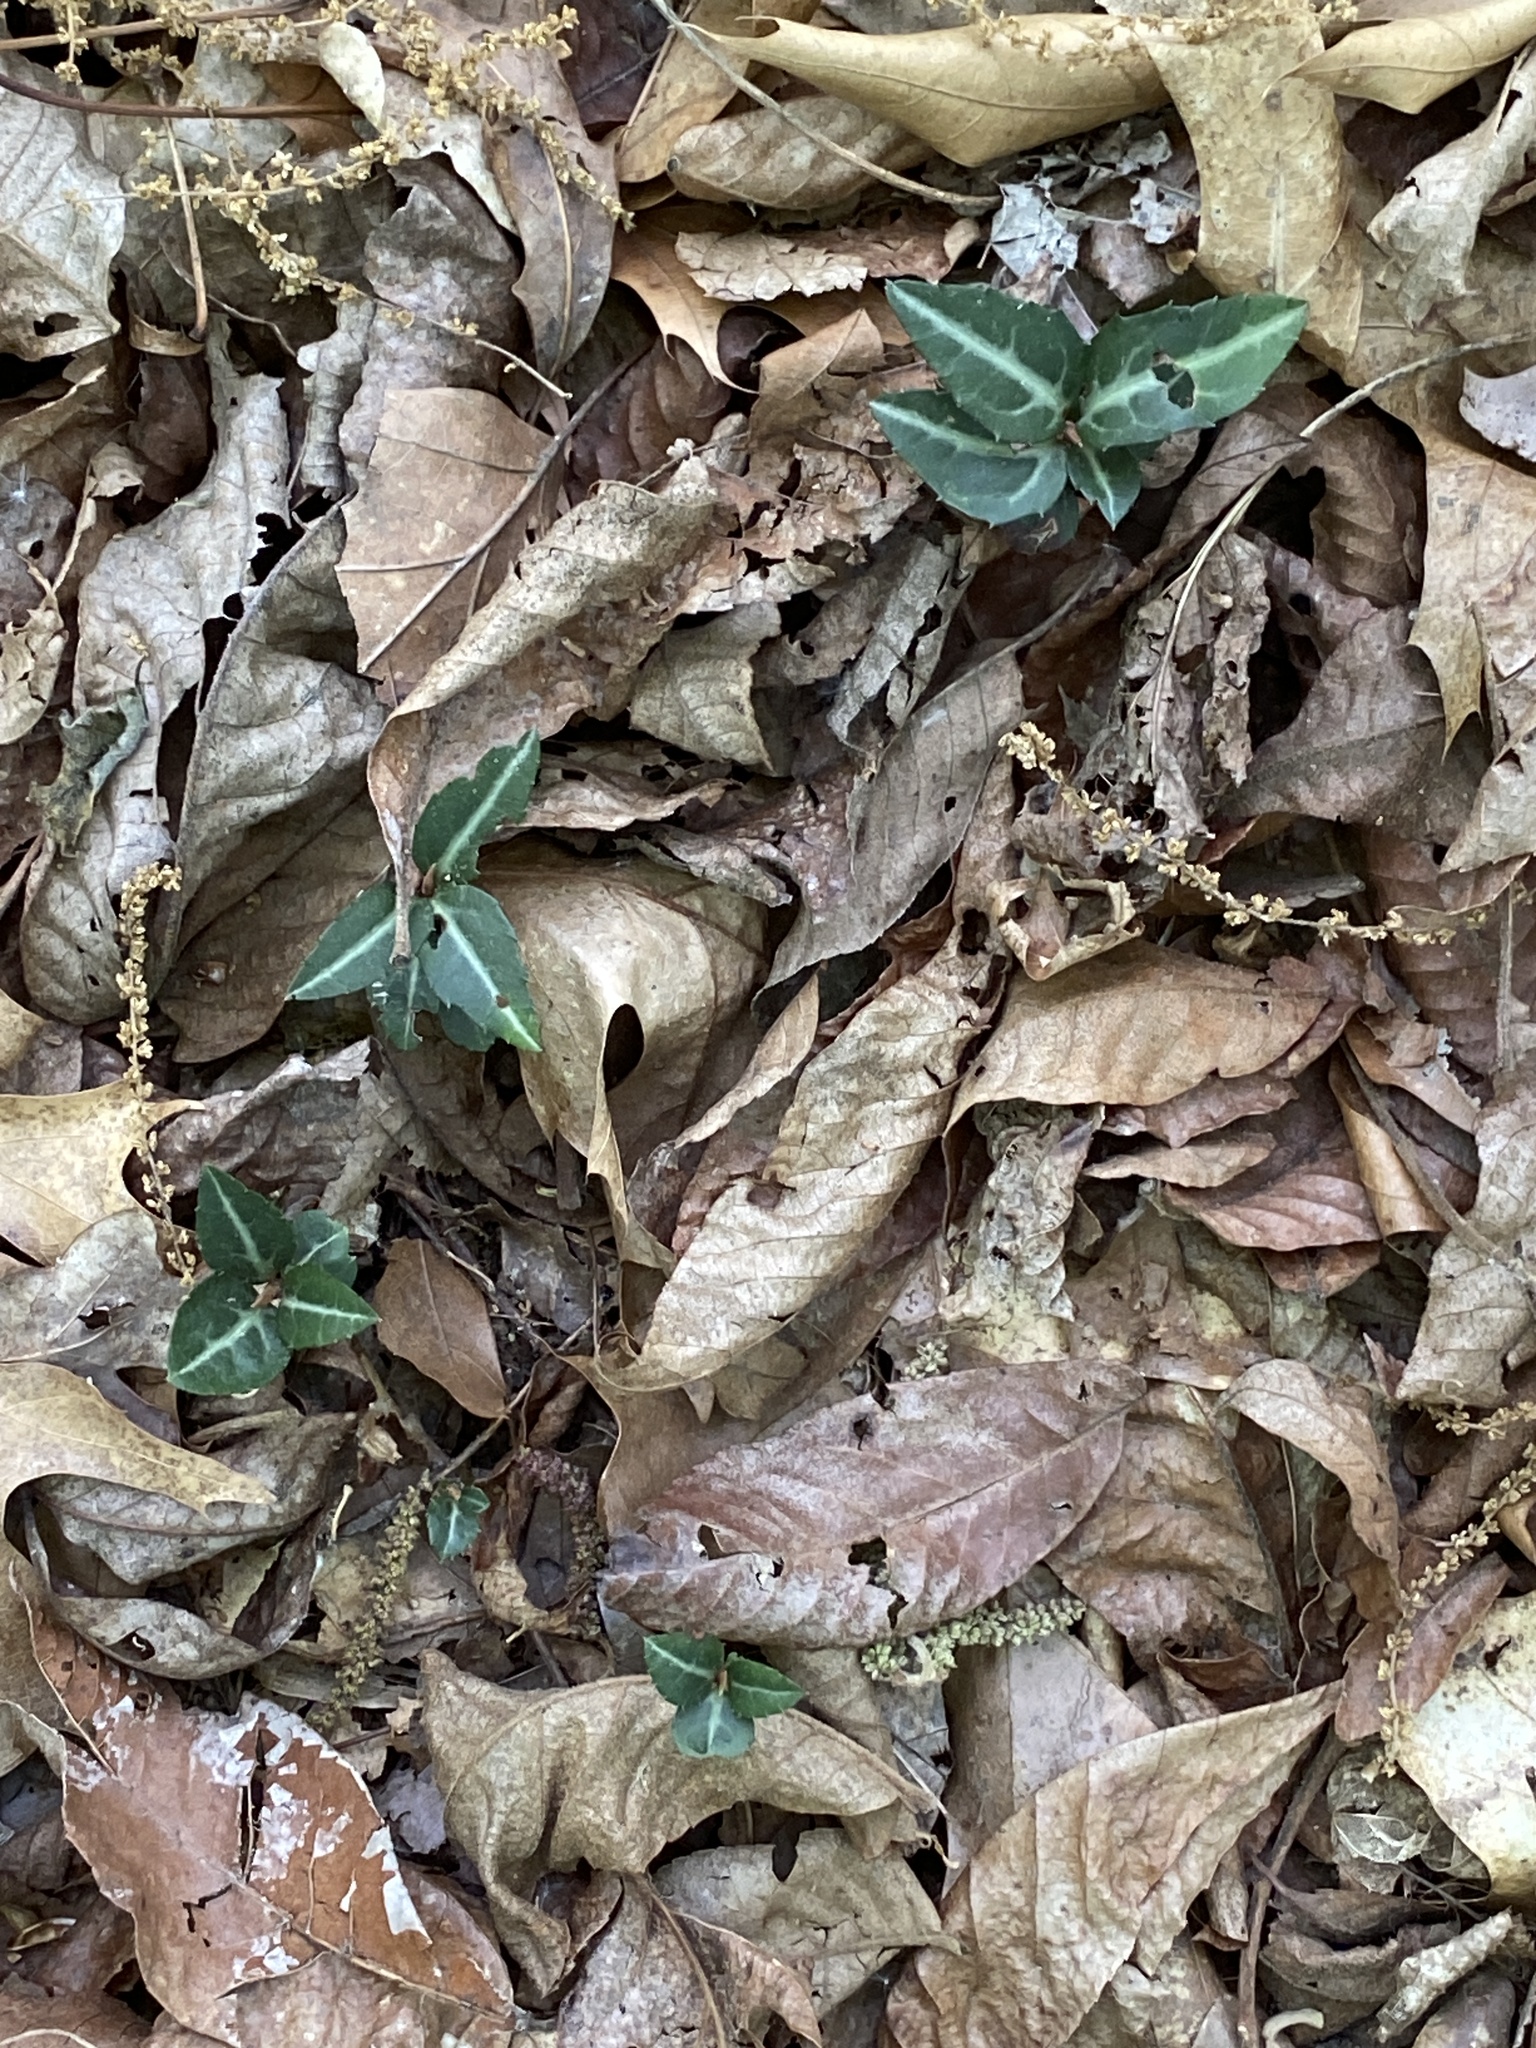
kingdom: Plantae
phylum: Tracheophyta
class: Magnoliopsida
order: Ericales
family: Ericaceae
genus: Chimaphila
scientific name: Chimaphila maculata
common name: Spotted pipsissewa
